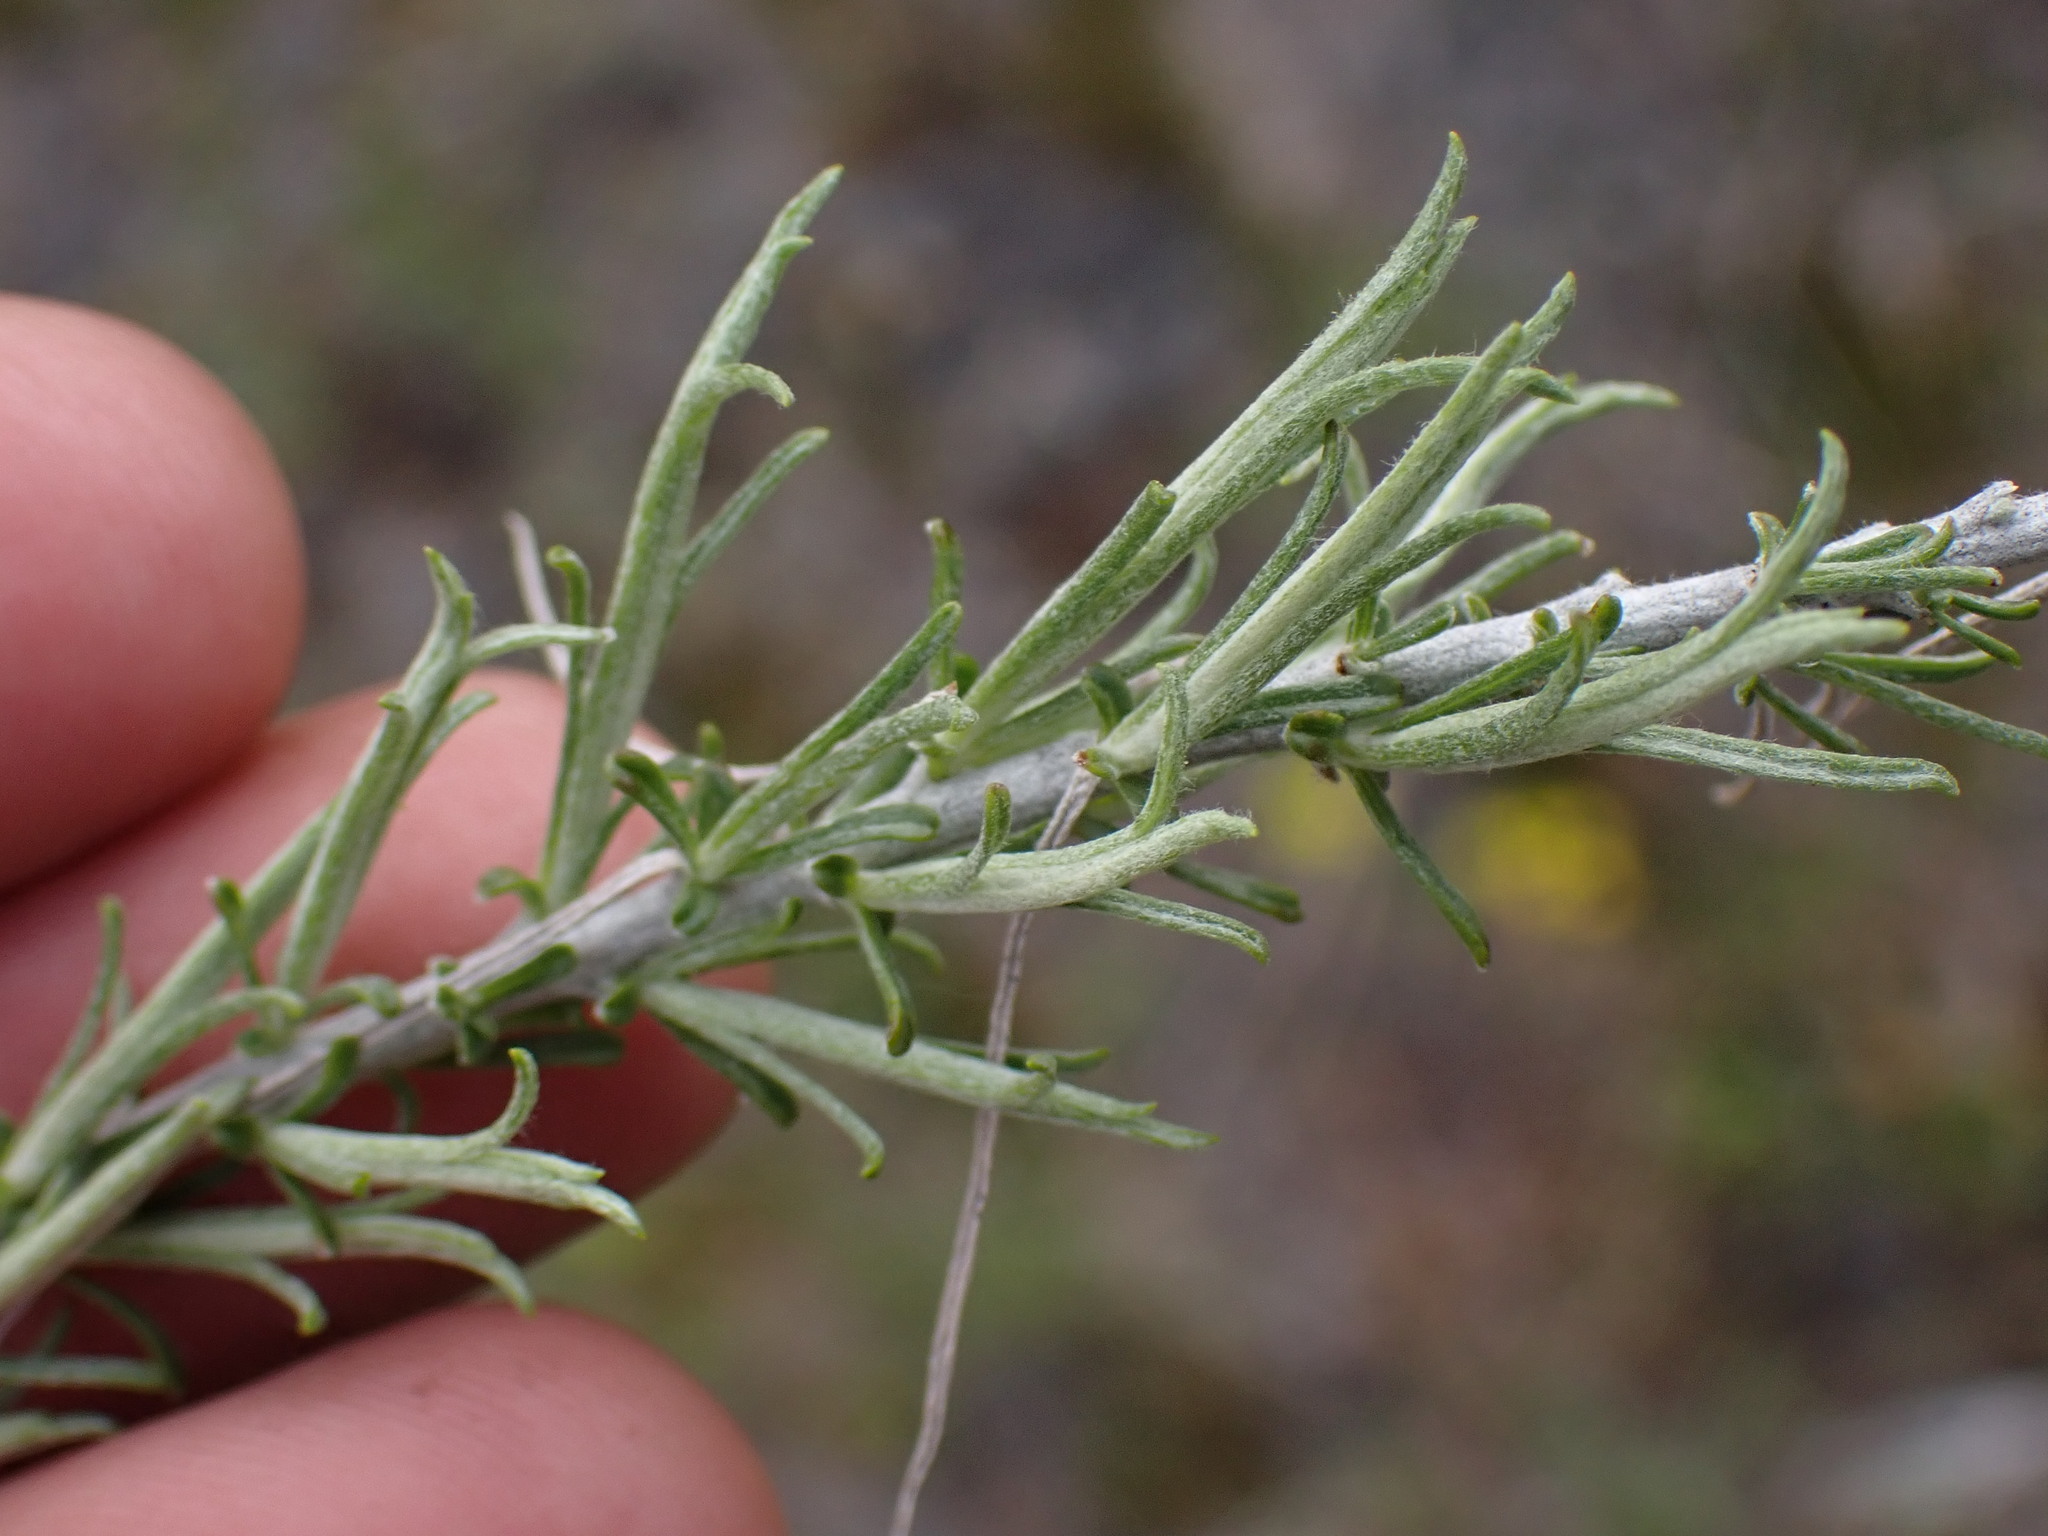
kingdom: Plantae
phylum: Tracheophyta
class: Magnoliopsida
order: Asterales
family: Asteraceae
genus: Ericameria
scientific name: Ericameria nauseosa
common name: Rubber rabbitbrush
